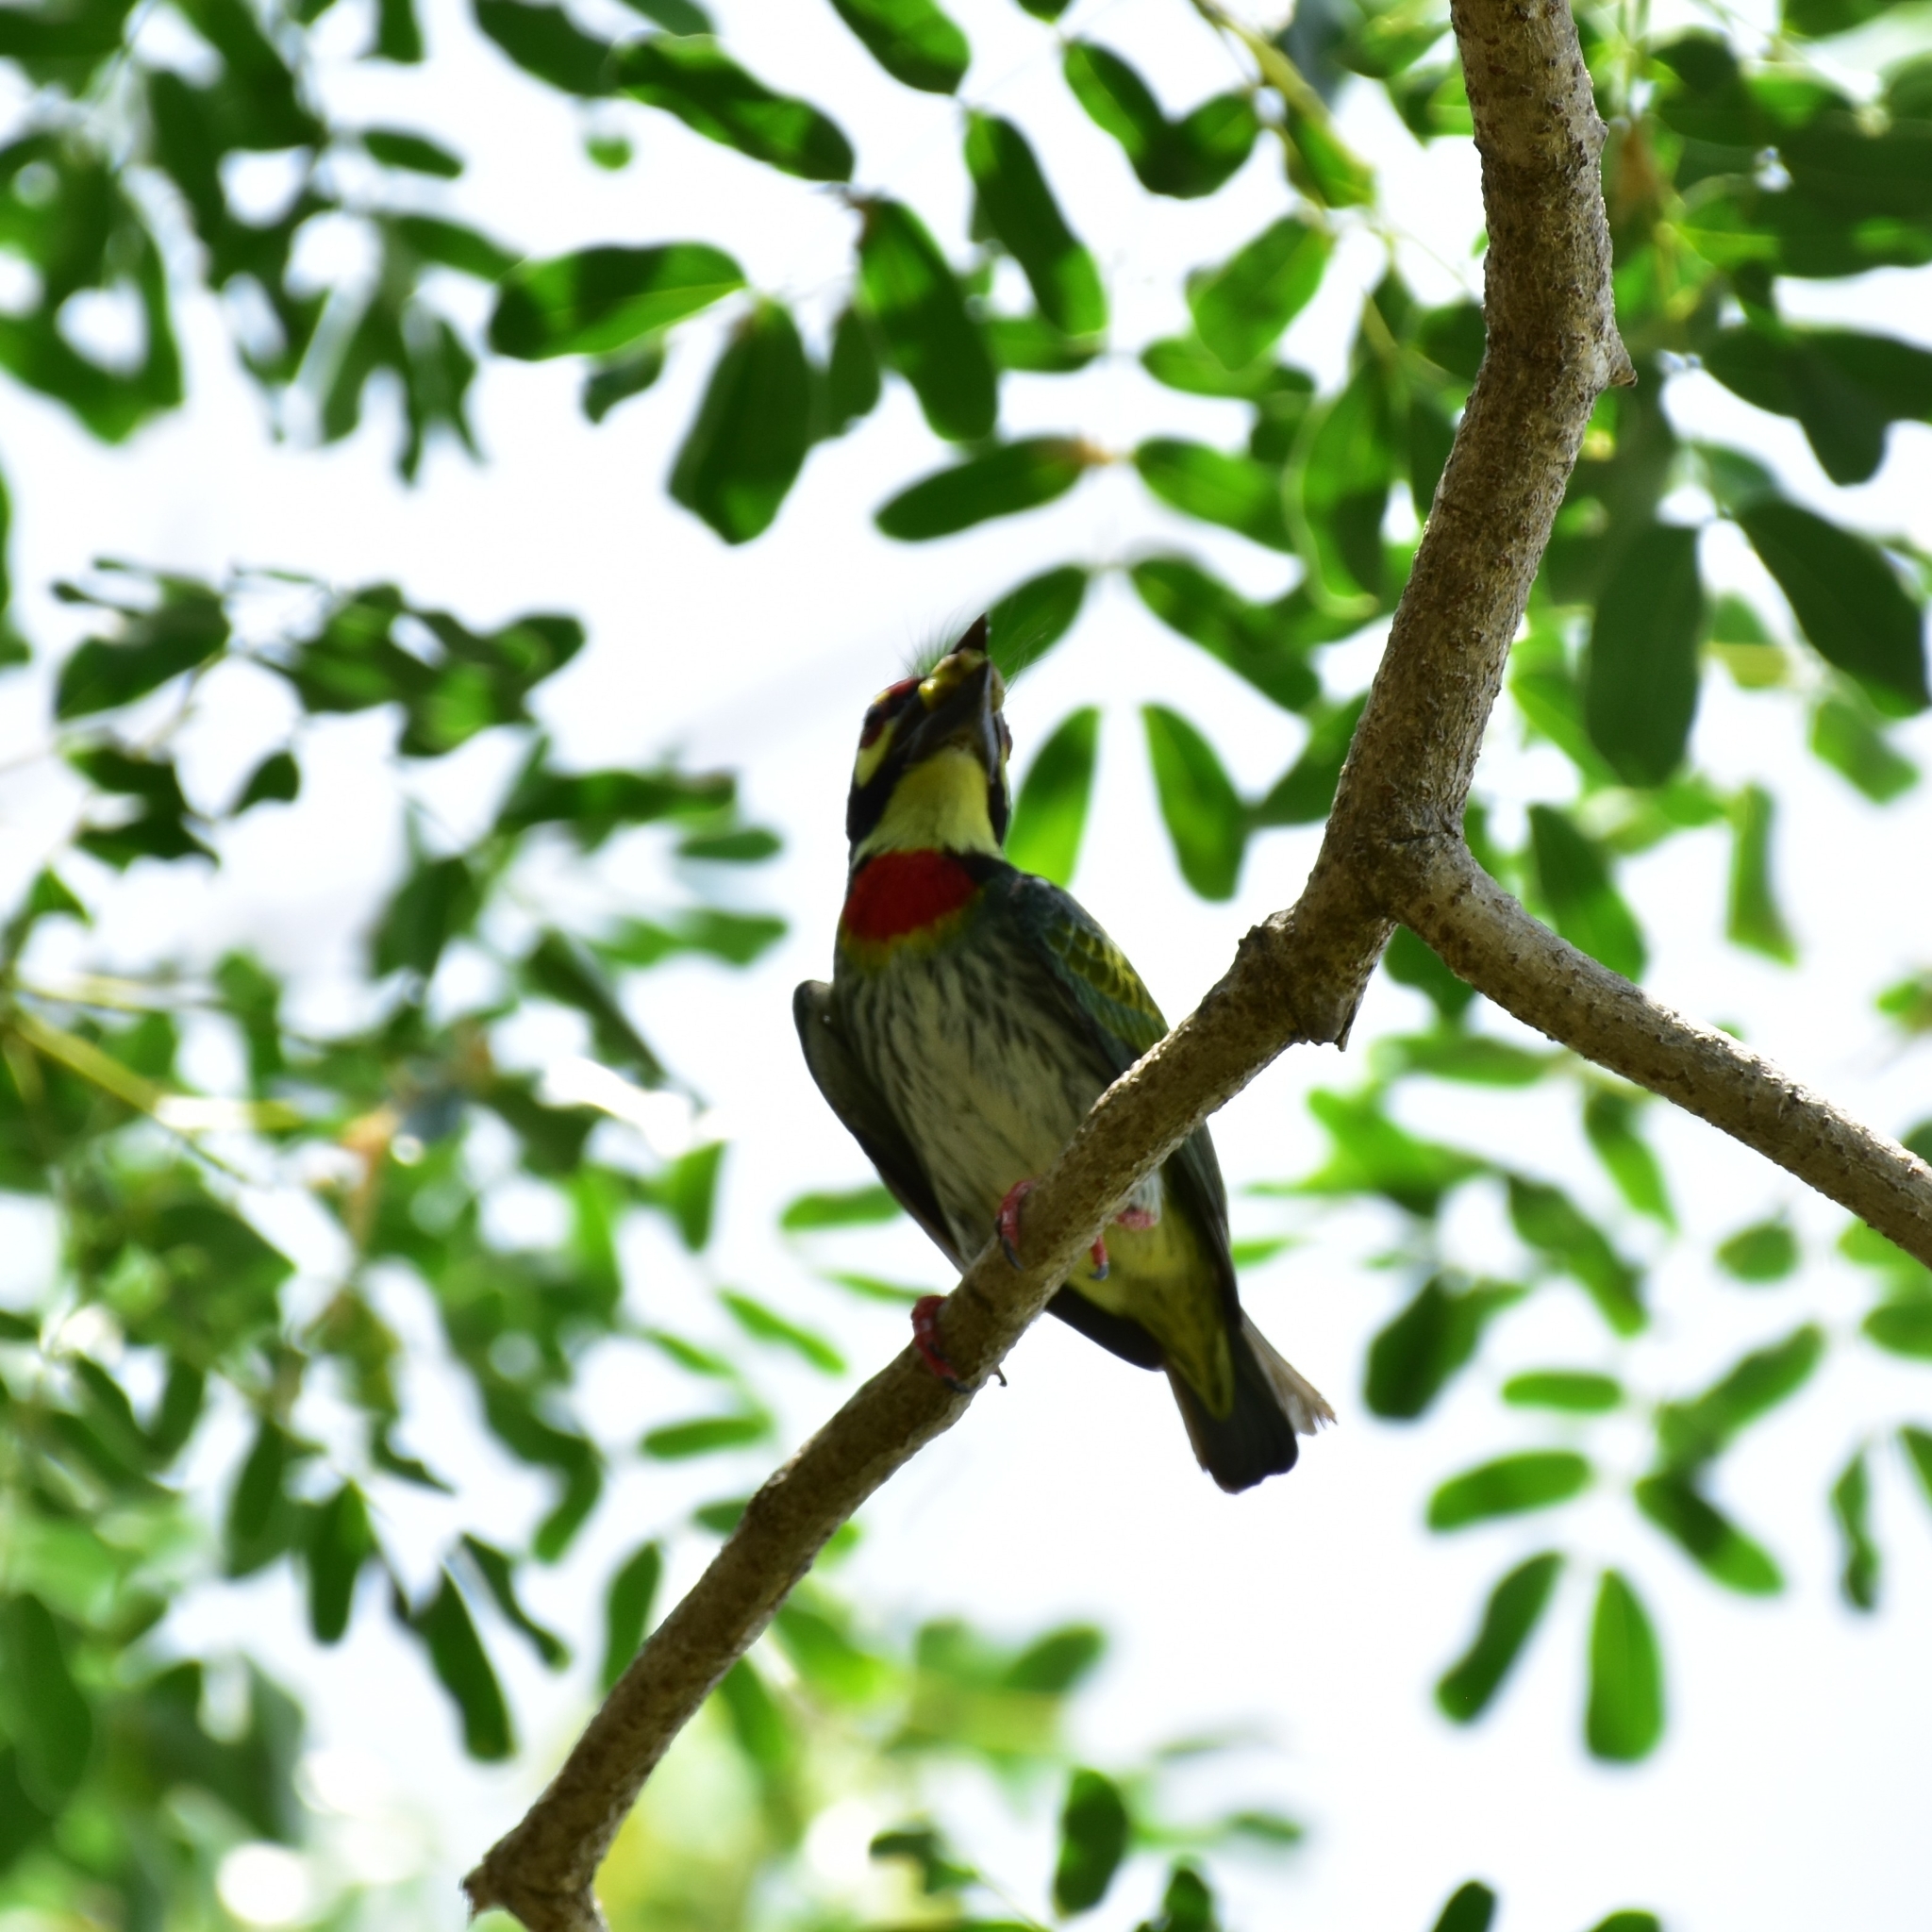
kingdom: Animalia
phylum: Chordata
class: Aves
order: Piciformes
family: Megalaimidae
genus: Psilopogon
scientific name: Psilopogon haemacephalus
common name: Coppersmith barbet
